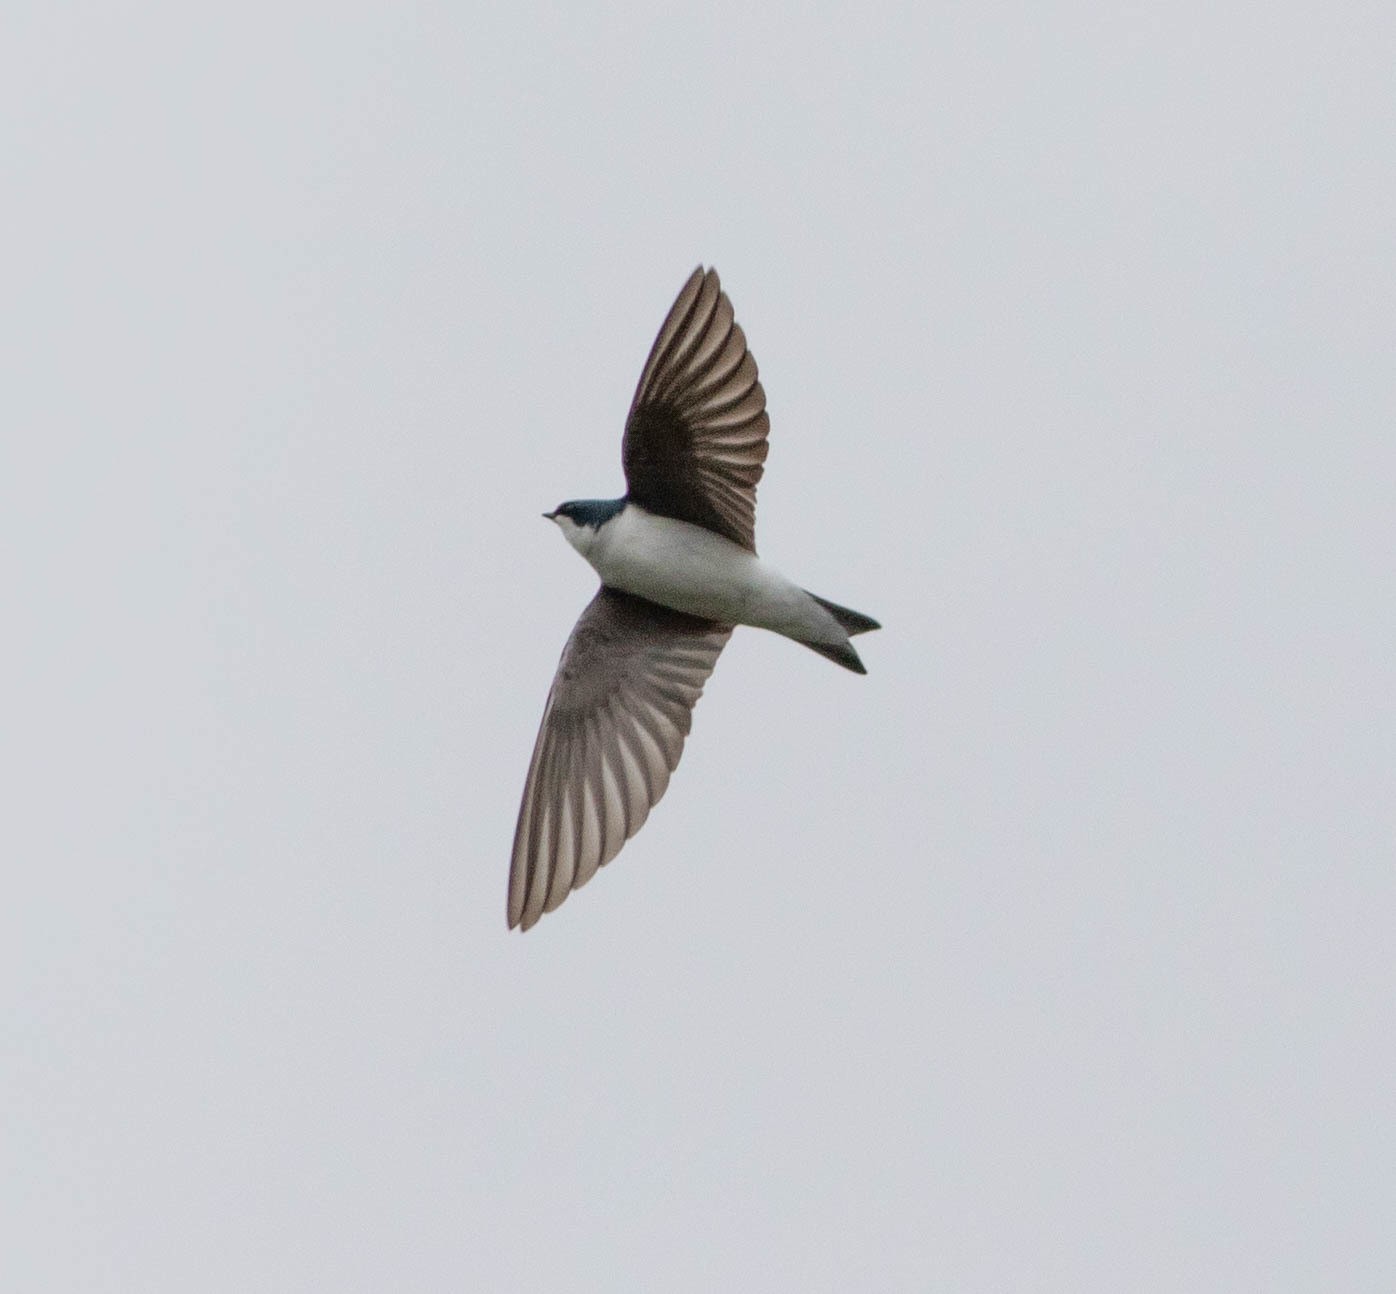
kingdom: Animalia
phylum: Chordata
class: Aves
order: Passeriformes
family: Hirundinidae
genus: Tachycineta
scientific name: Tachycineta bicolor
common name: Tree swallow
